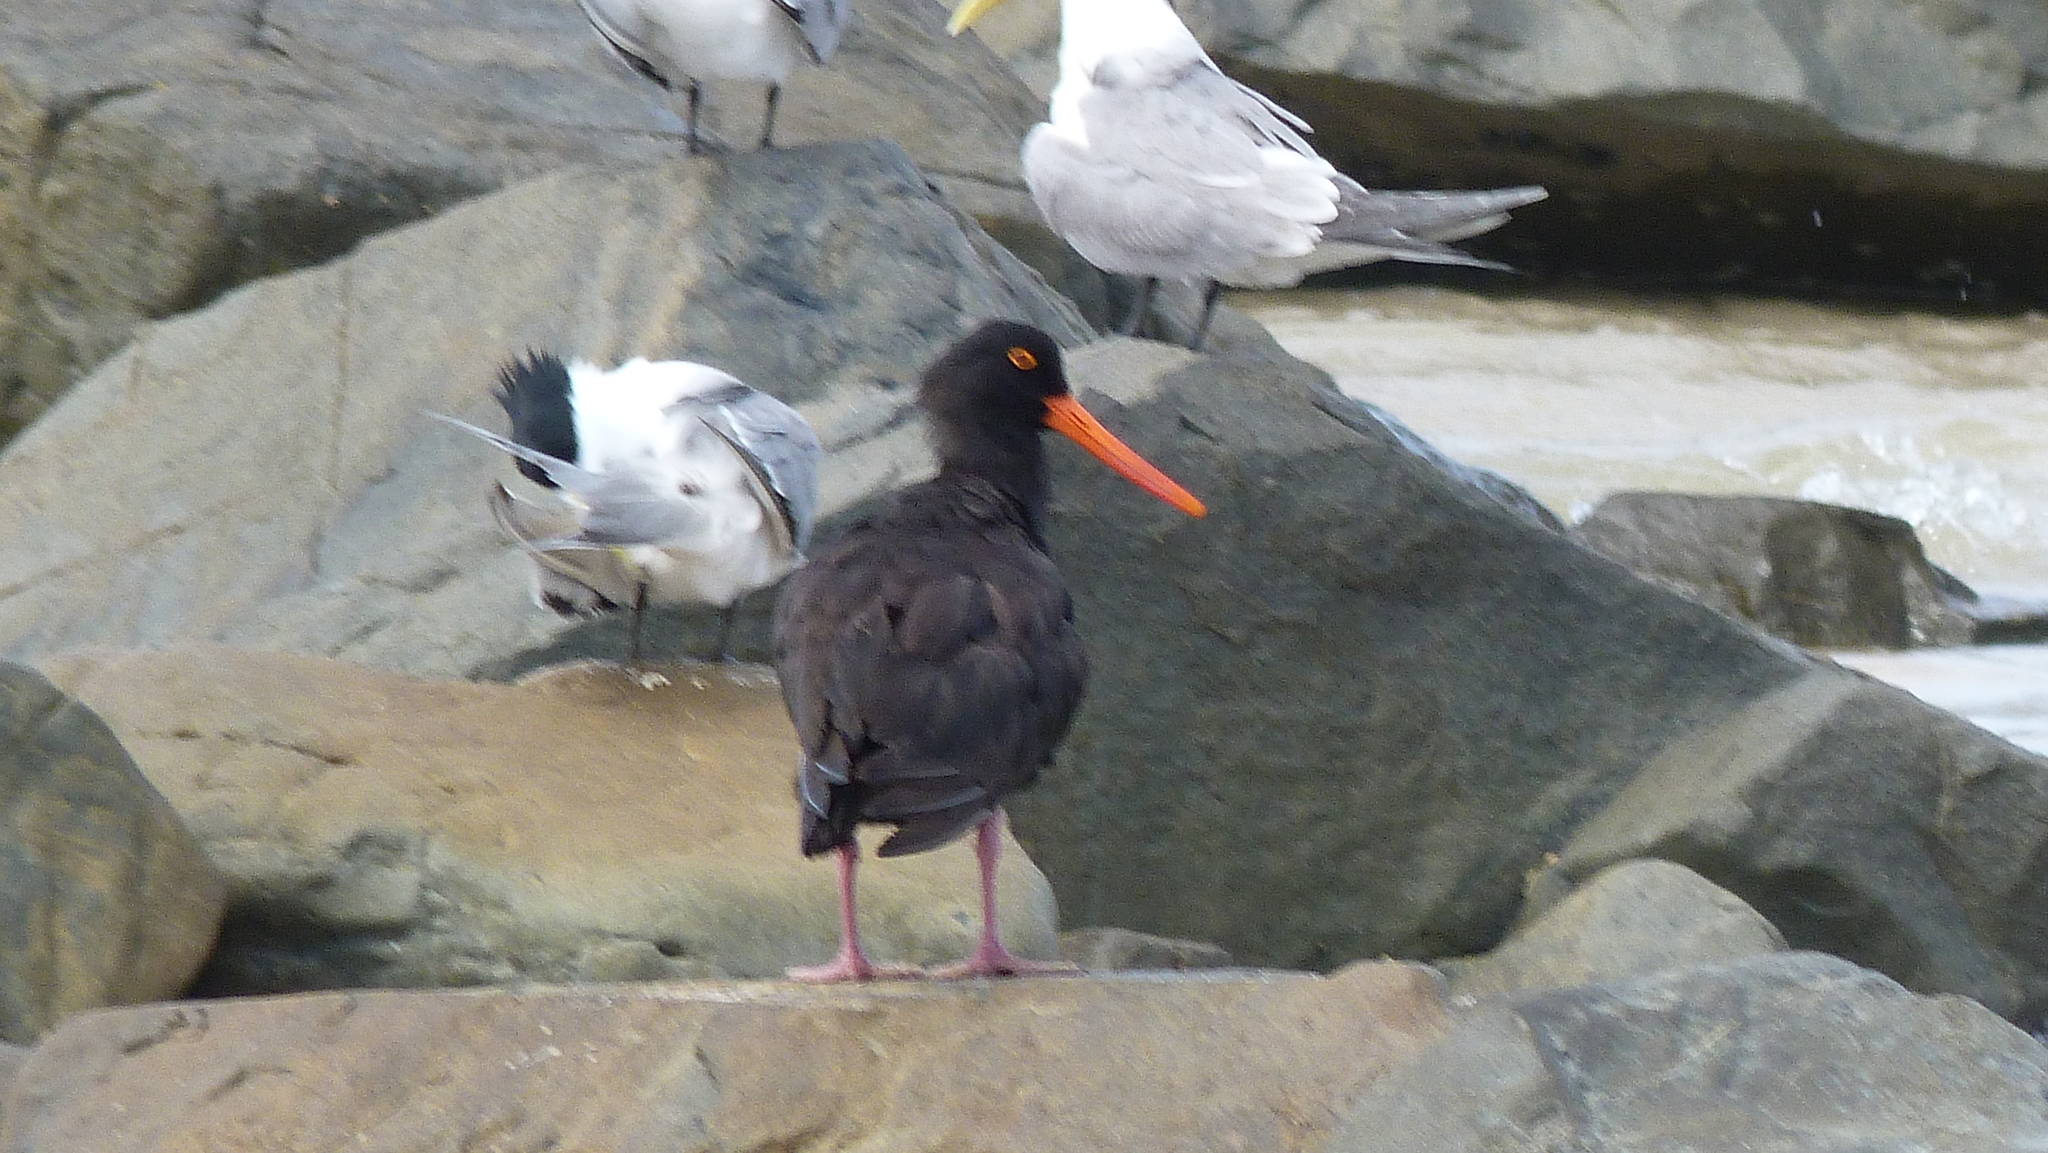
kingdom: Animalia
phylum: Chordata
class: Aves
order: Charadriiformes
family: Haematopodidae
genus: Haematopus
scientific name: Haematopus fuliginosus
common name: Sooty oystercatcher
